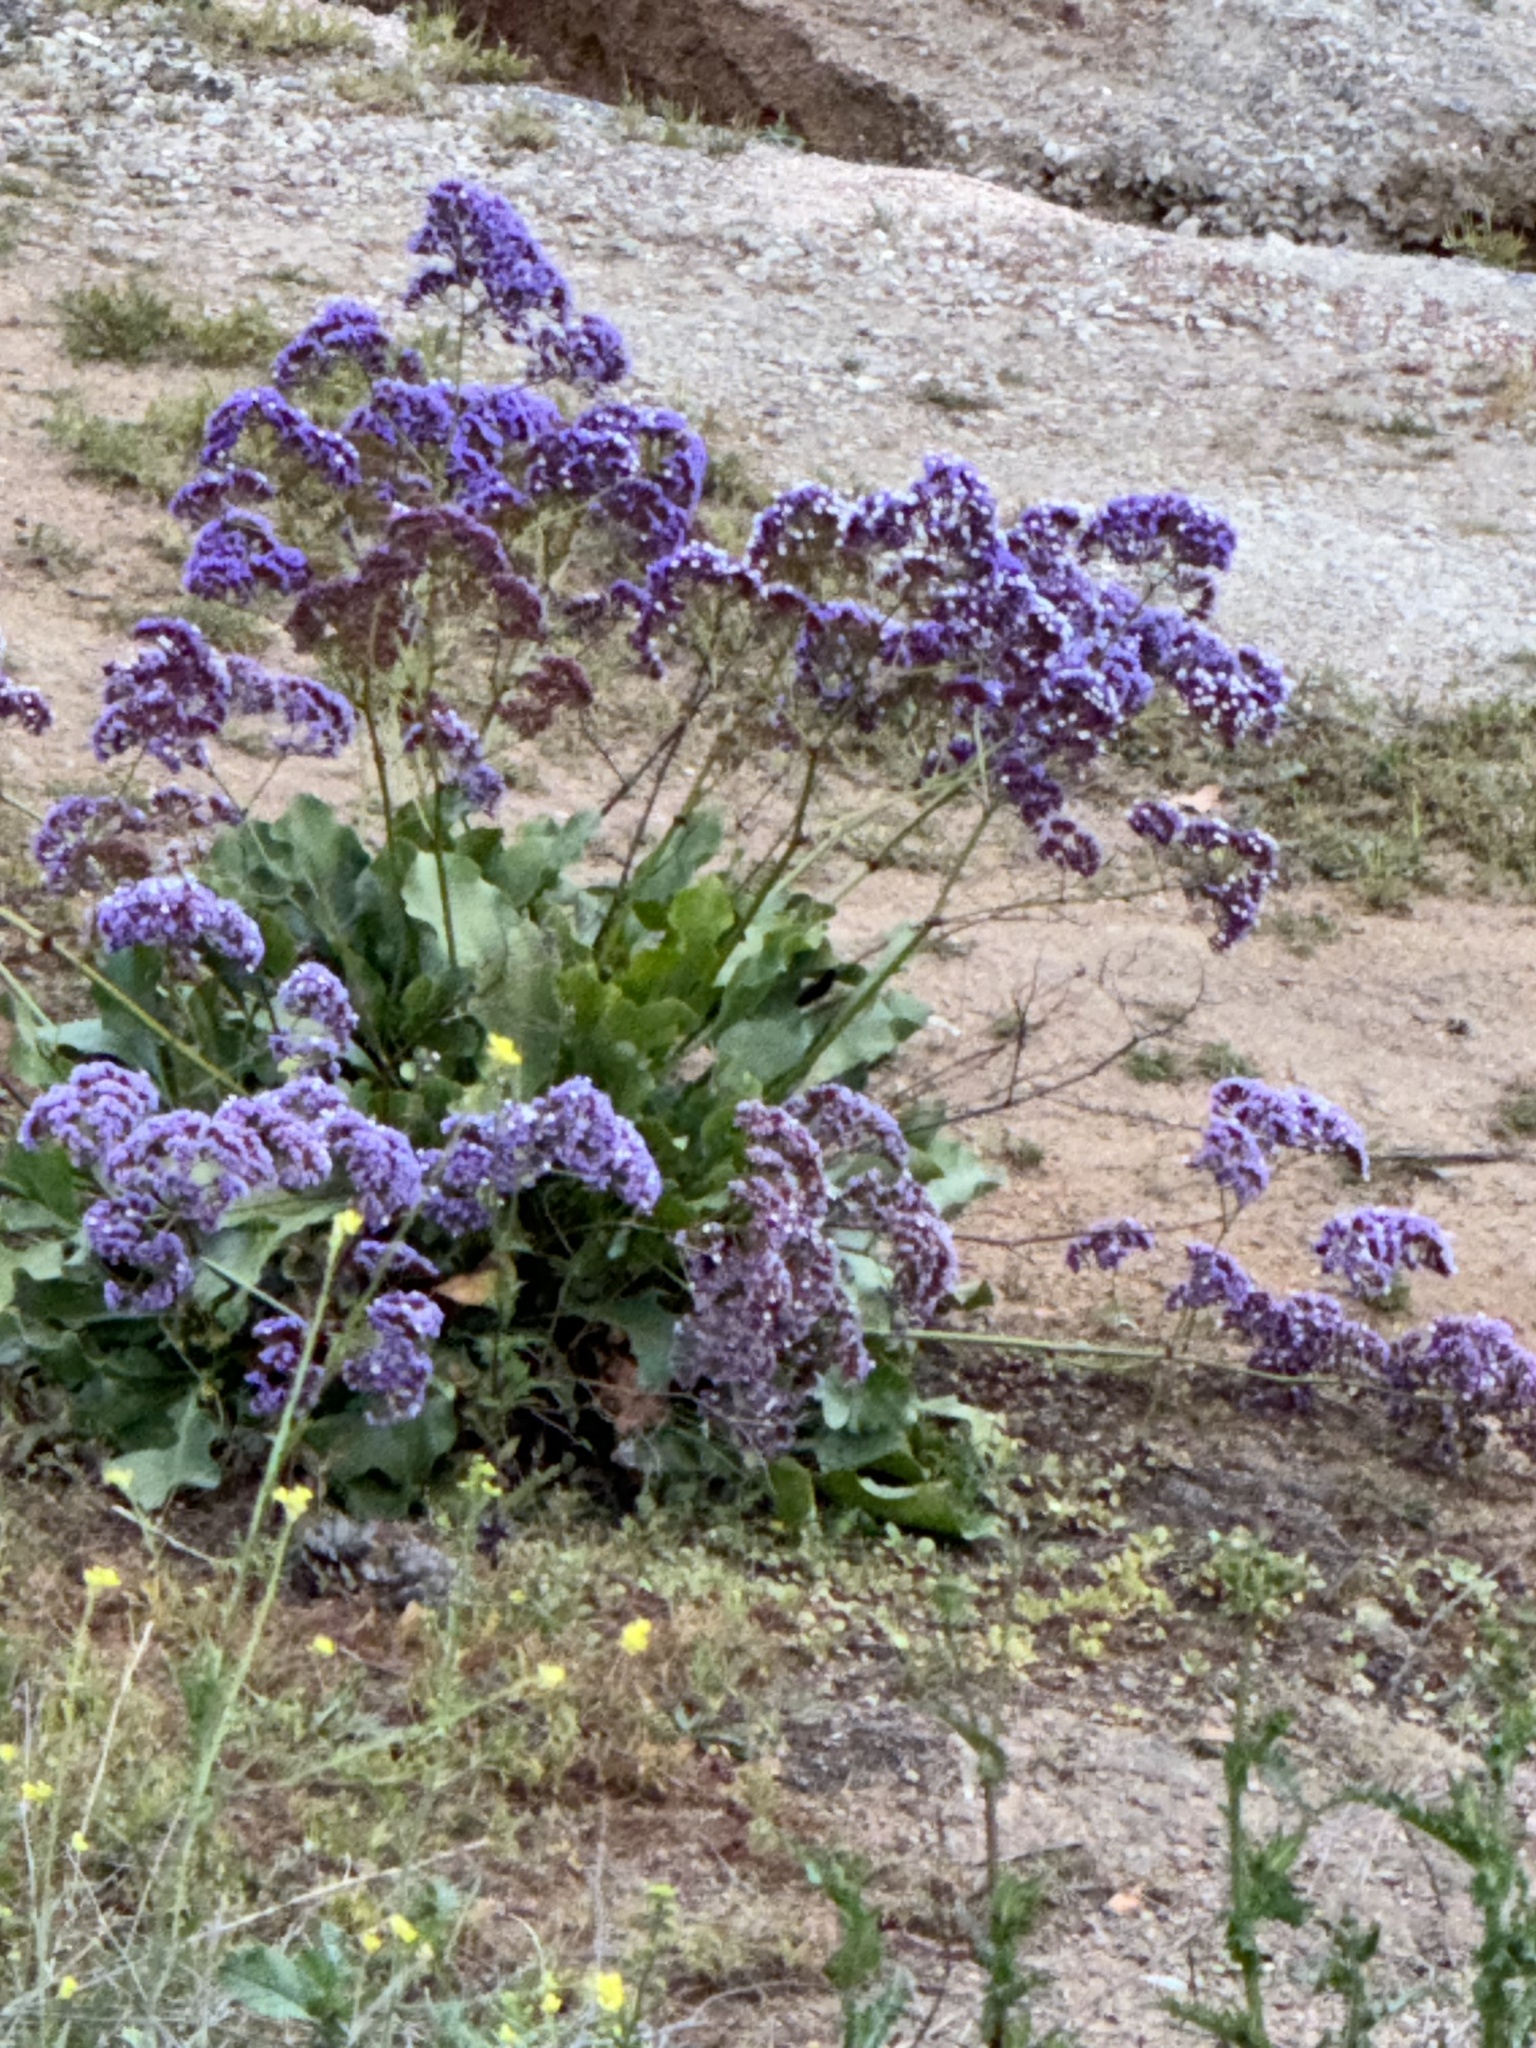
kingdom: Plantae
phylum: Tracheophyta
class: Magnoliopsida
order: Caryophyllales
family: Plumbaginaceae
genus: Limonium
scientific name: Limonium brassicifolium
